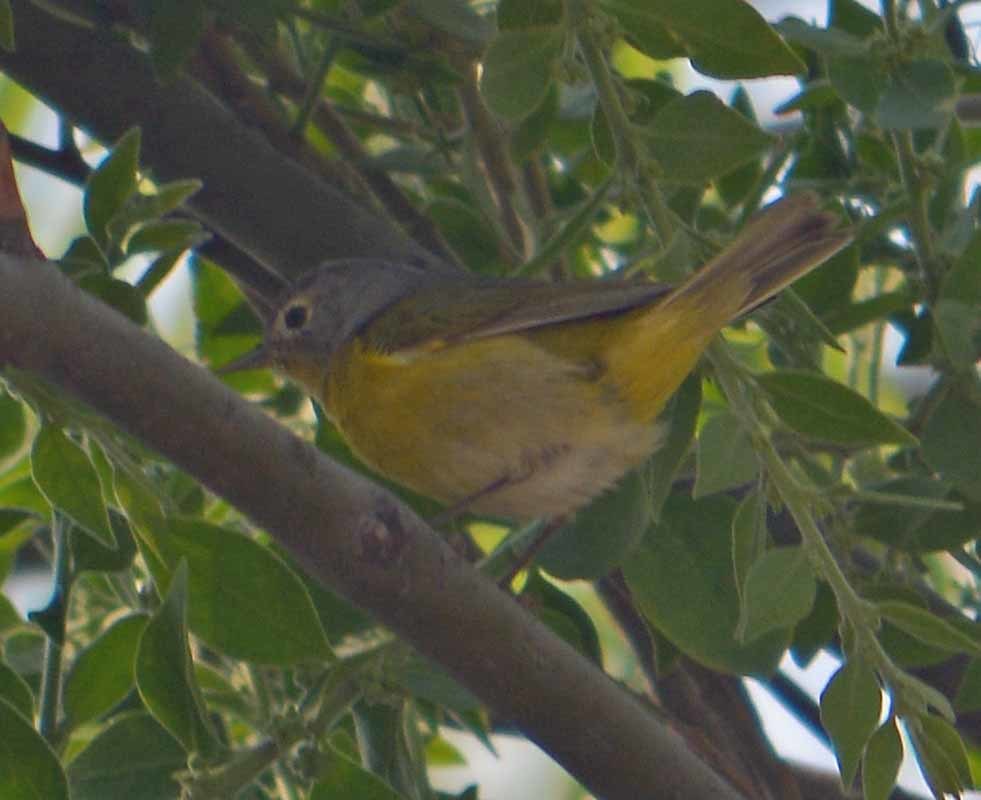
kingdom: Animalia
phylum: Chordata
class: Aves
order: Passeriformes
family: Parulidae
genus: Leiothlypis
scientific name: Leiothlypis ruficapilla
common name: Nashville warbler
